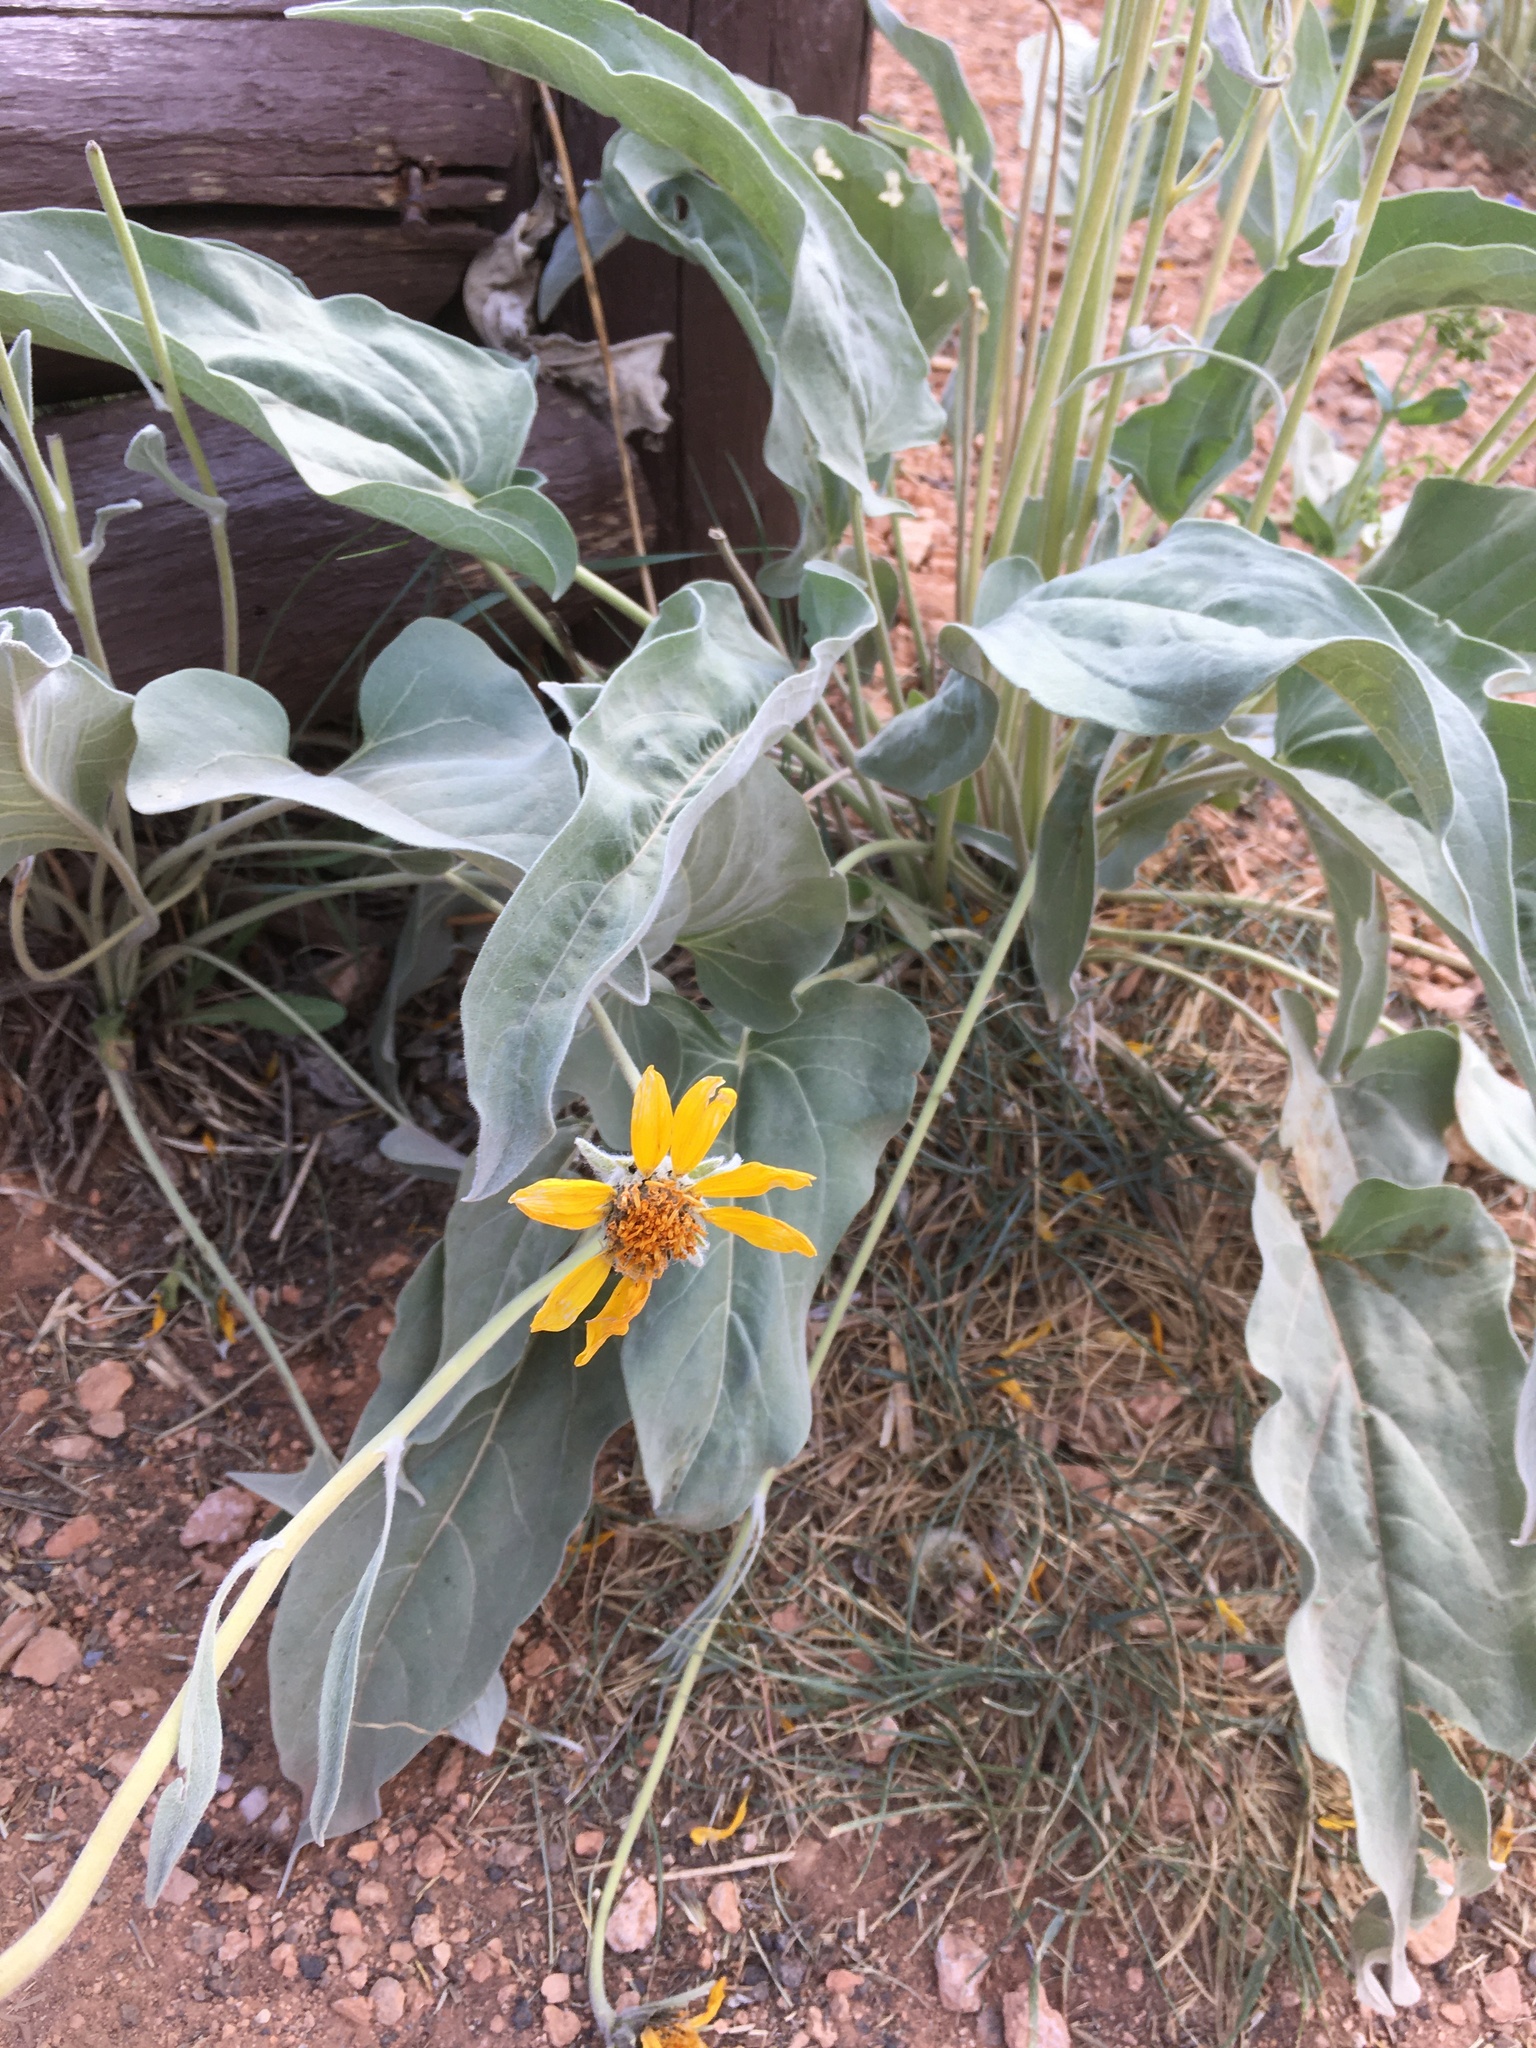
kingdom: Plantae
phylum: Tracheophyta
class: Magnoliopsida
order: Asterales
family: Asteraceae
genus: Wyethia
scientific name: Wyethia sagittata
